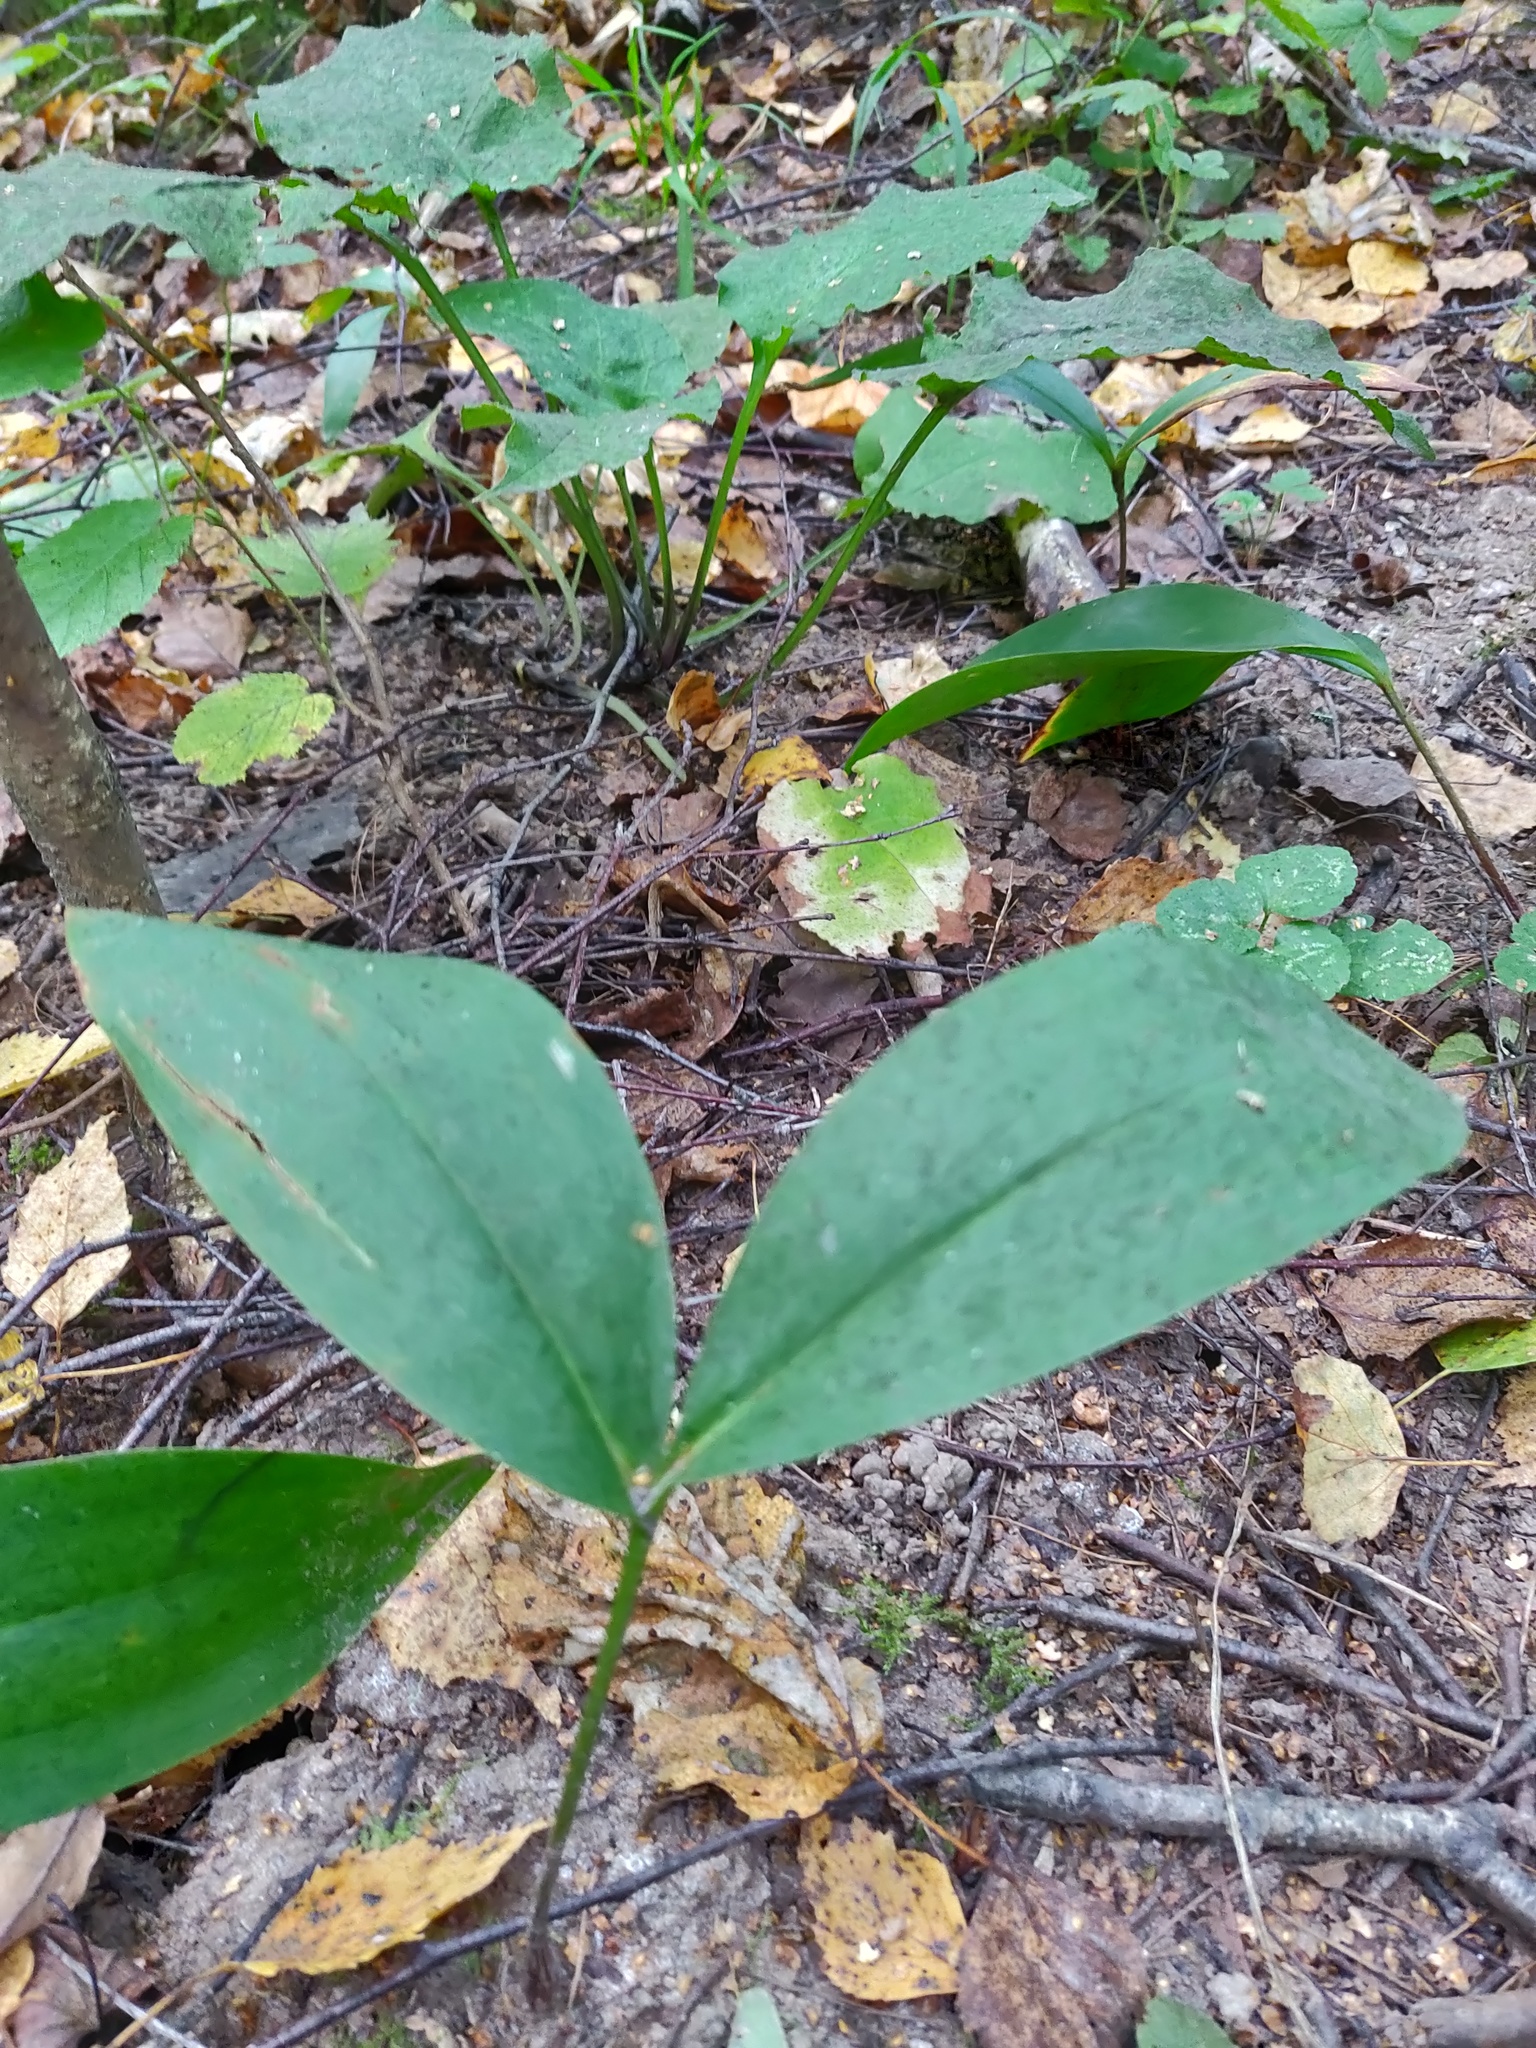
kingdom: Plantae
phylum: Tracheophyta
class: Liliopsida
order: Asparagales
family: Asparagaceae
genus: Convallaria
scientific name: Convallaria majalis
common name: Lily-of-the-valley
